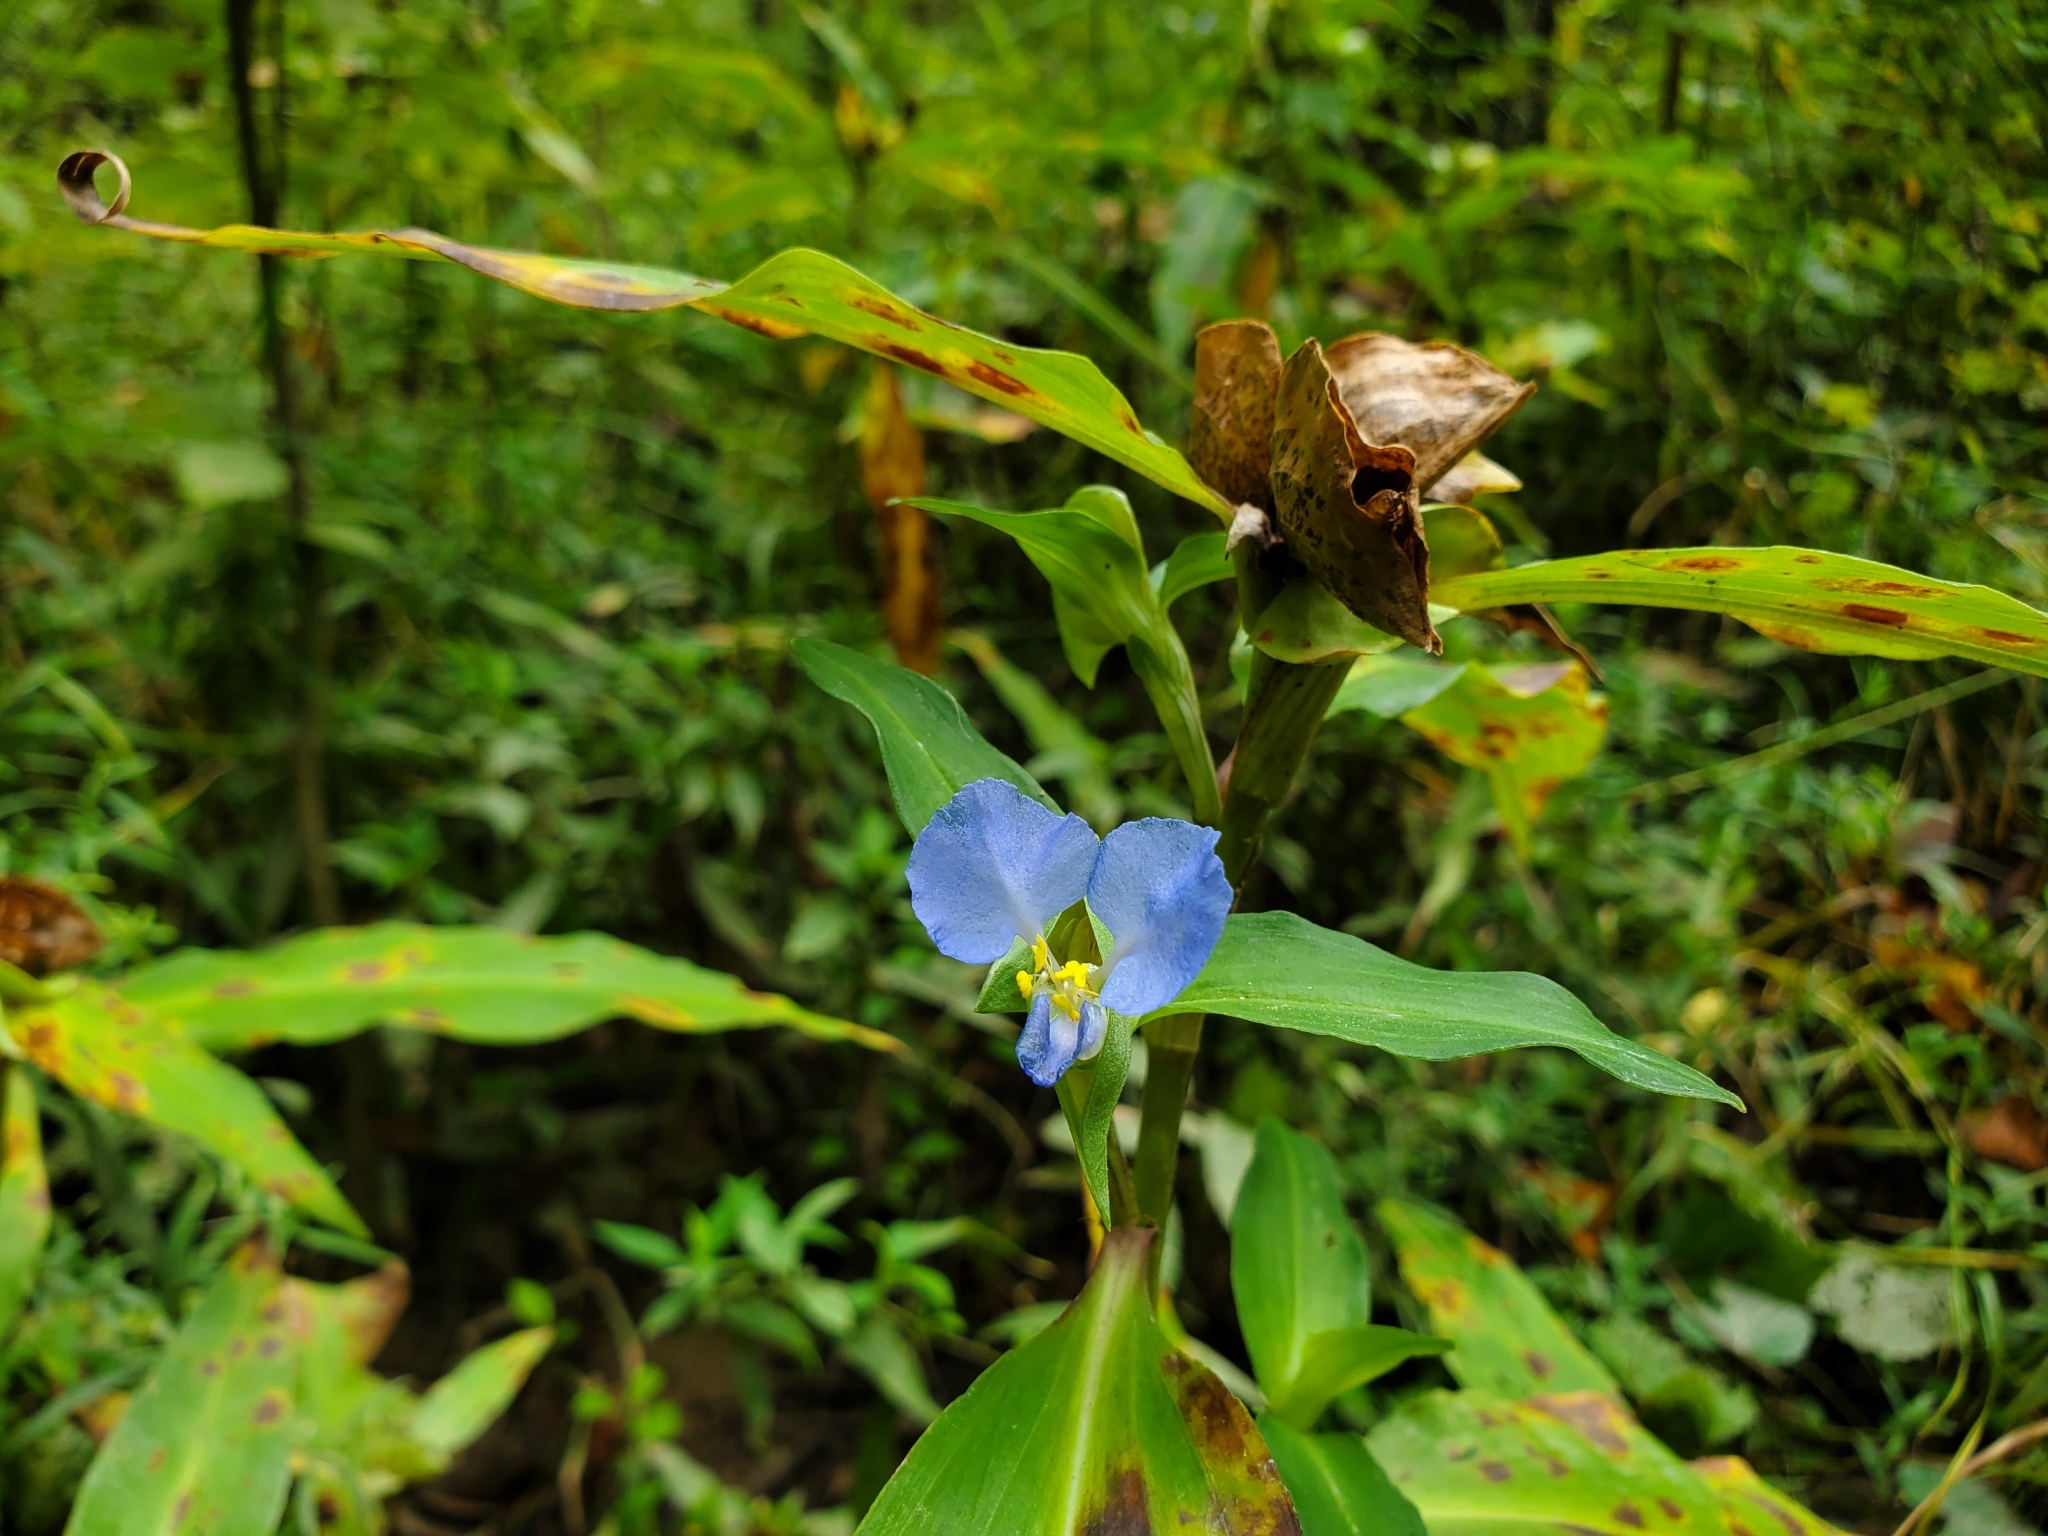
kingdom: Plantae
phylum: Tracheophyta
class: Liliopsida
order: Commelinales
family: Commelinaceae
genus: Commelina
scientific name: Commelina virginica
